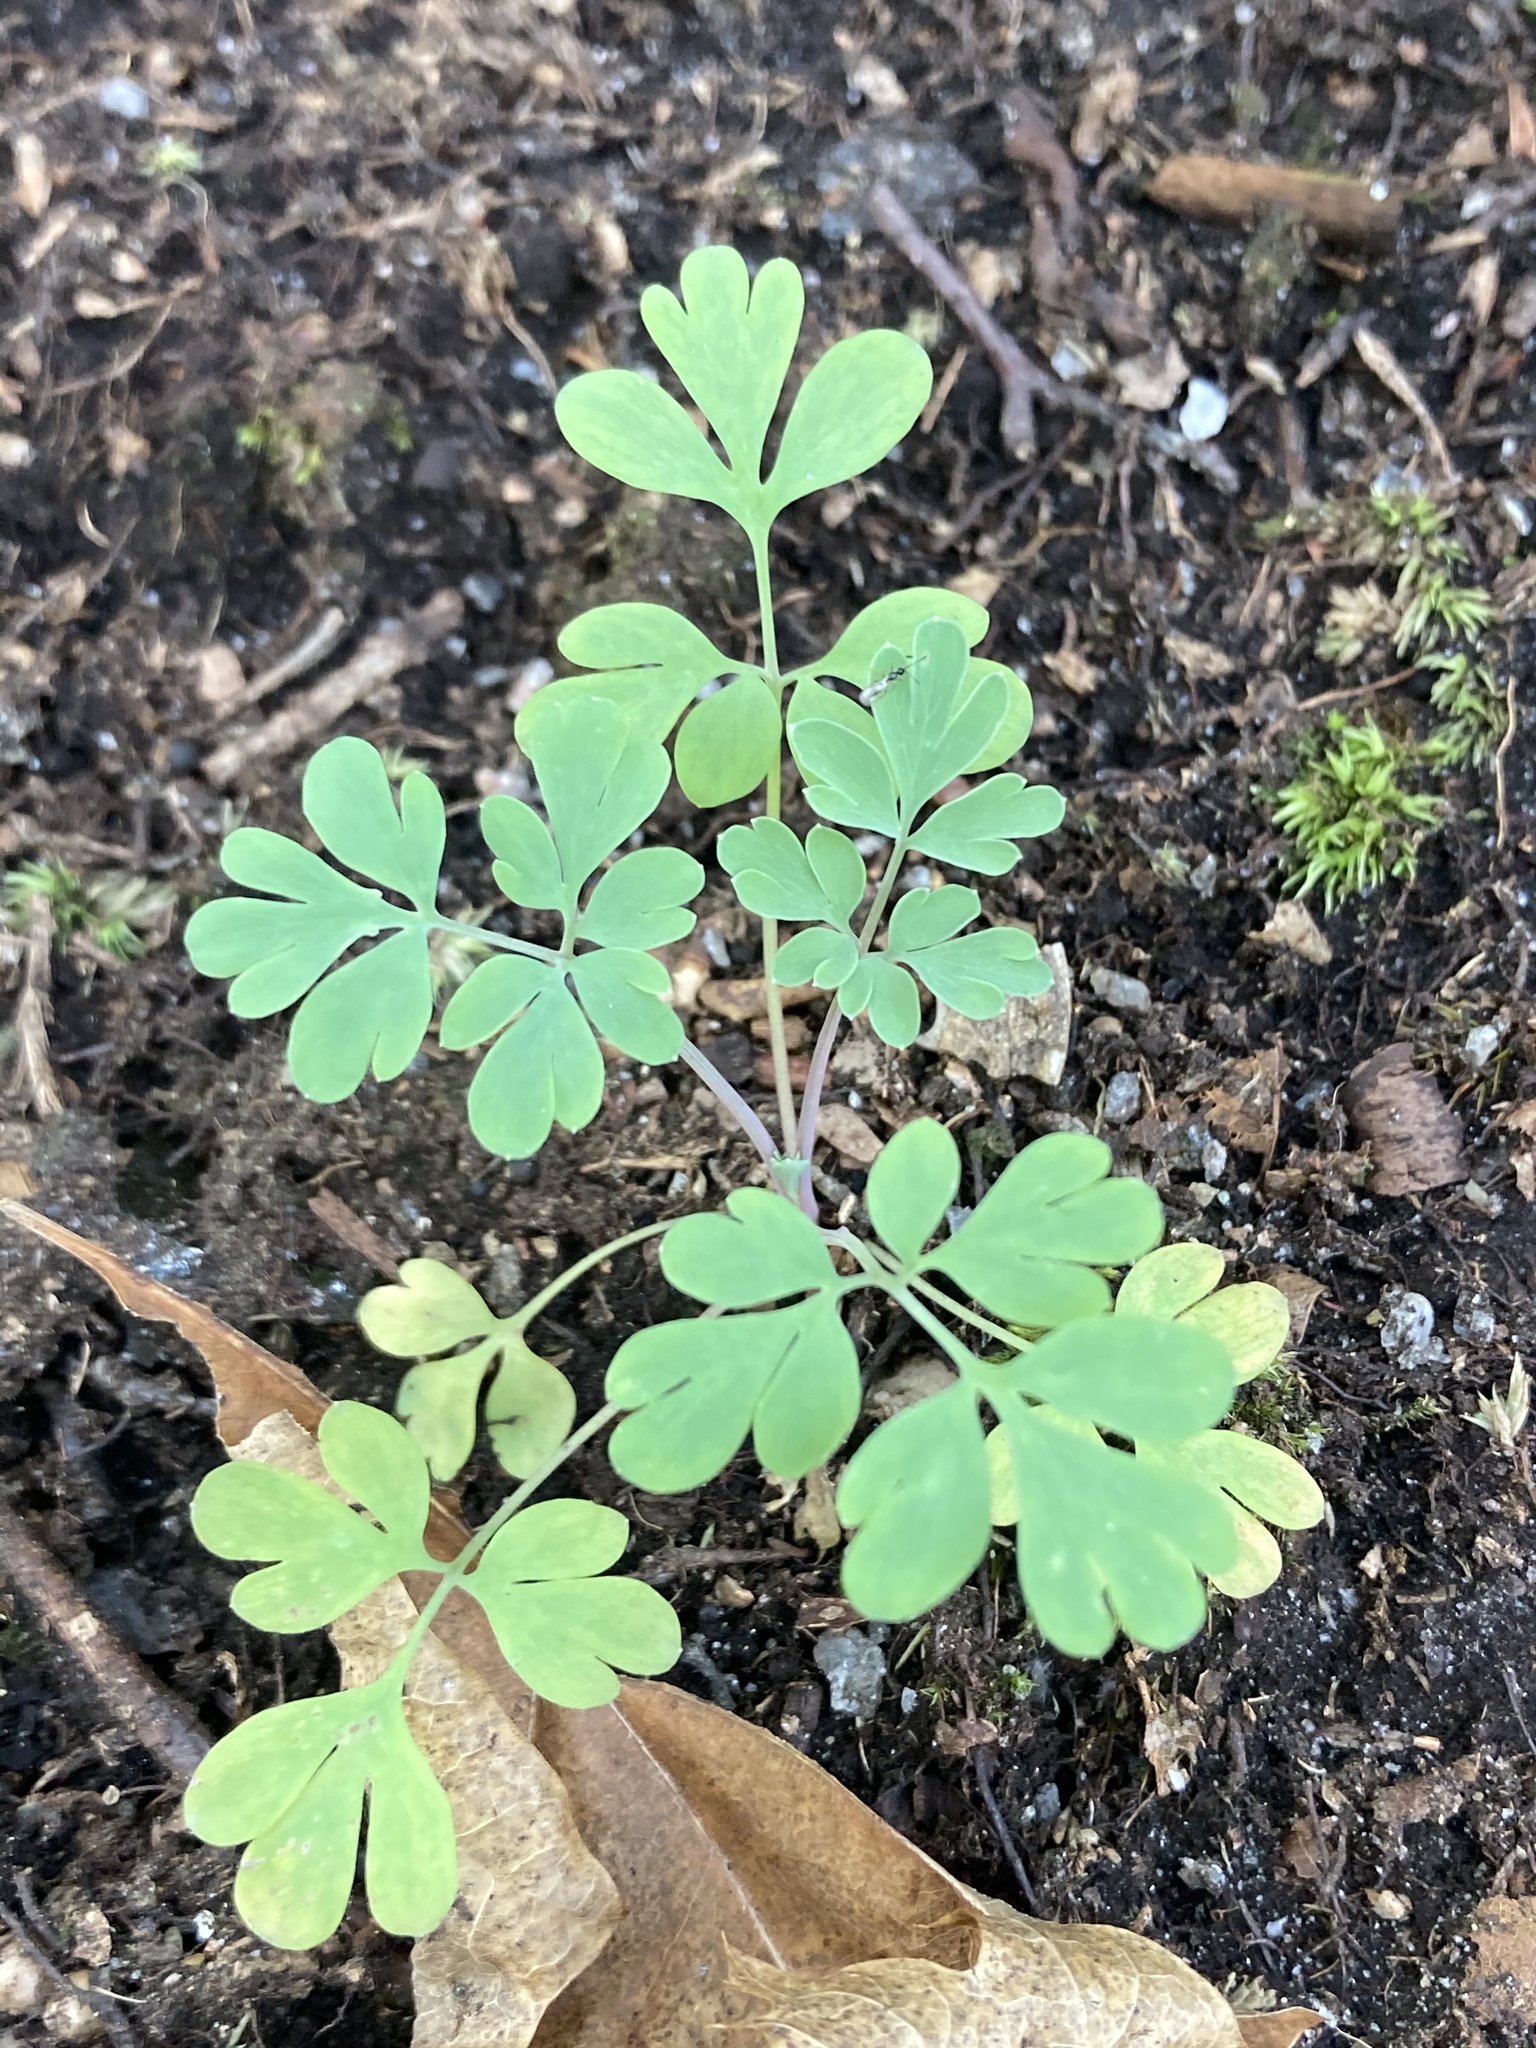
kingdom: Plantae
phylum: Tracheophyta
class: Magnoliopsida
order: Ranunculales
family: Papaveraceae
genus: Capnoides
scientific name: Capnoides sempervirens
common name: Rock harlequin
